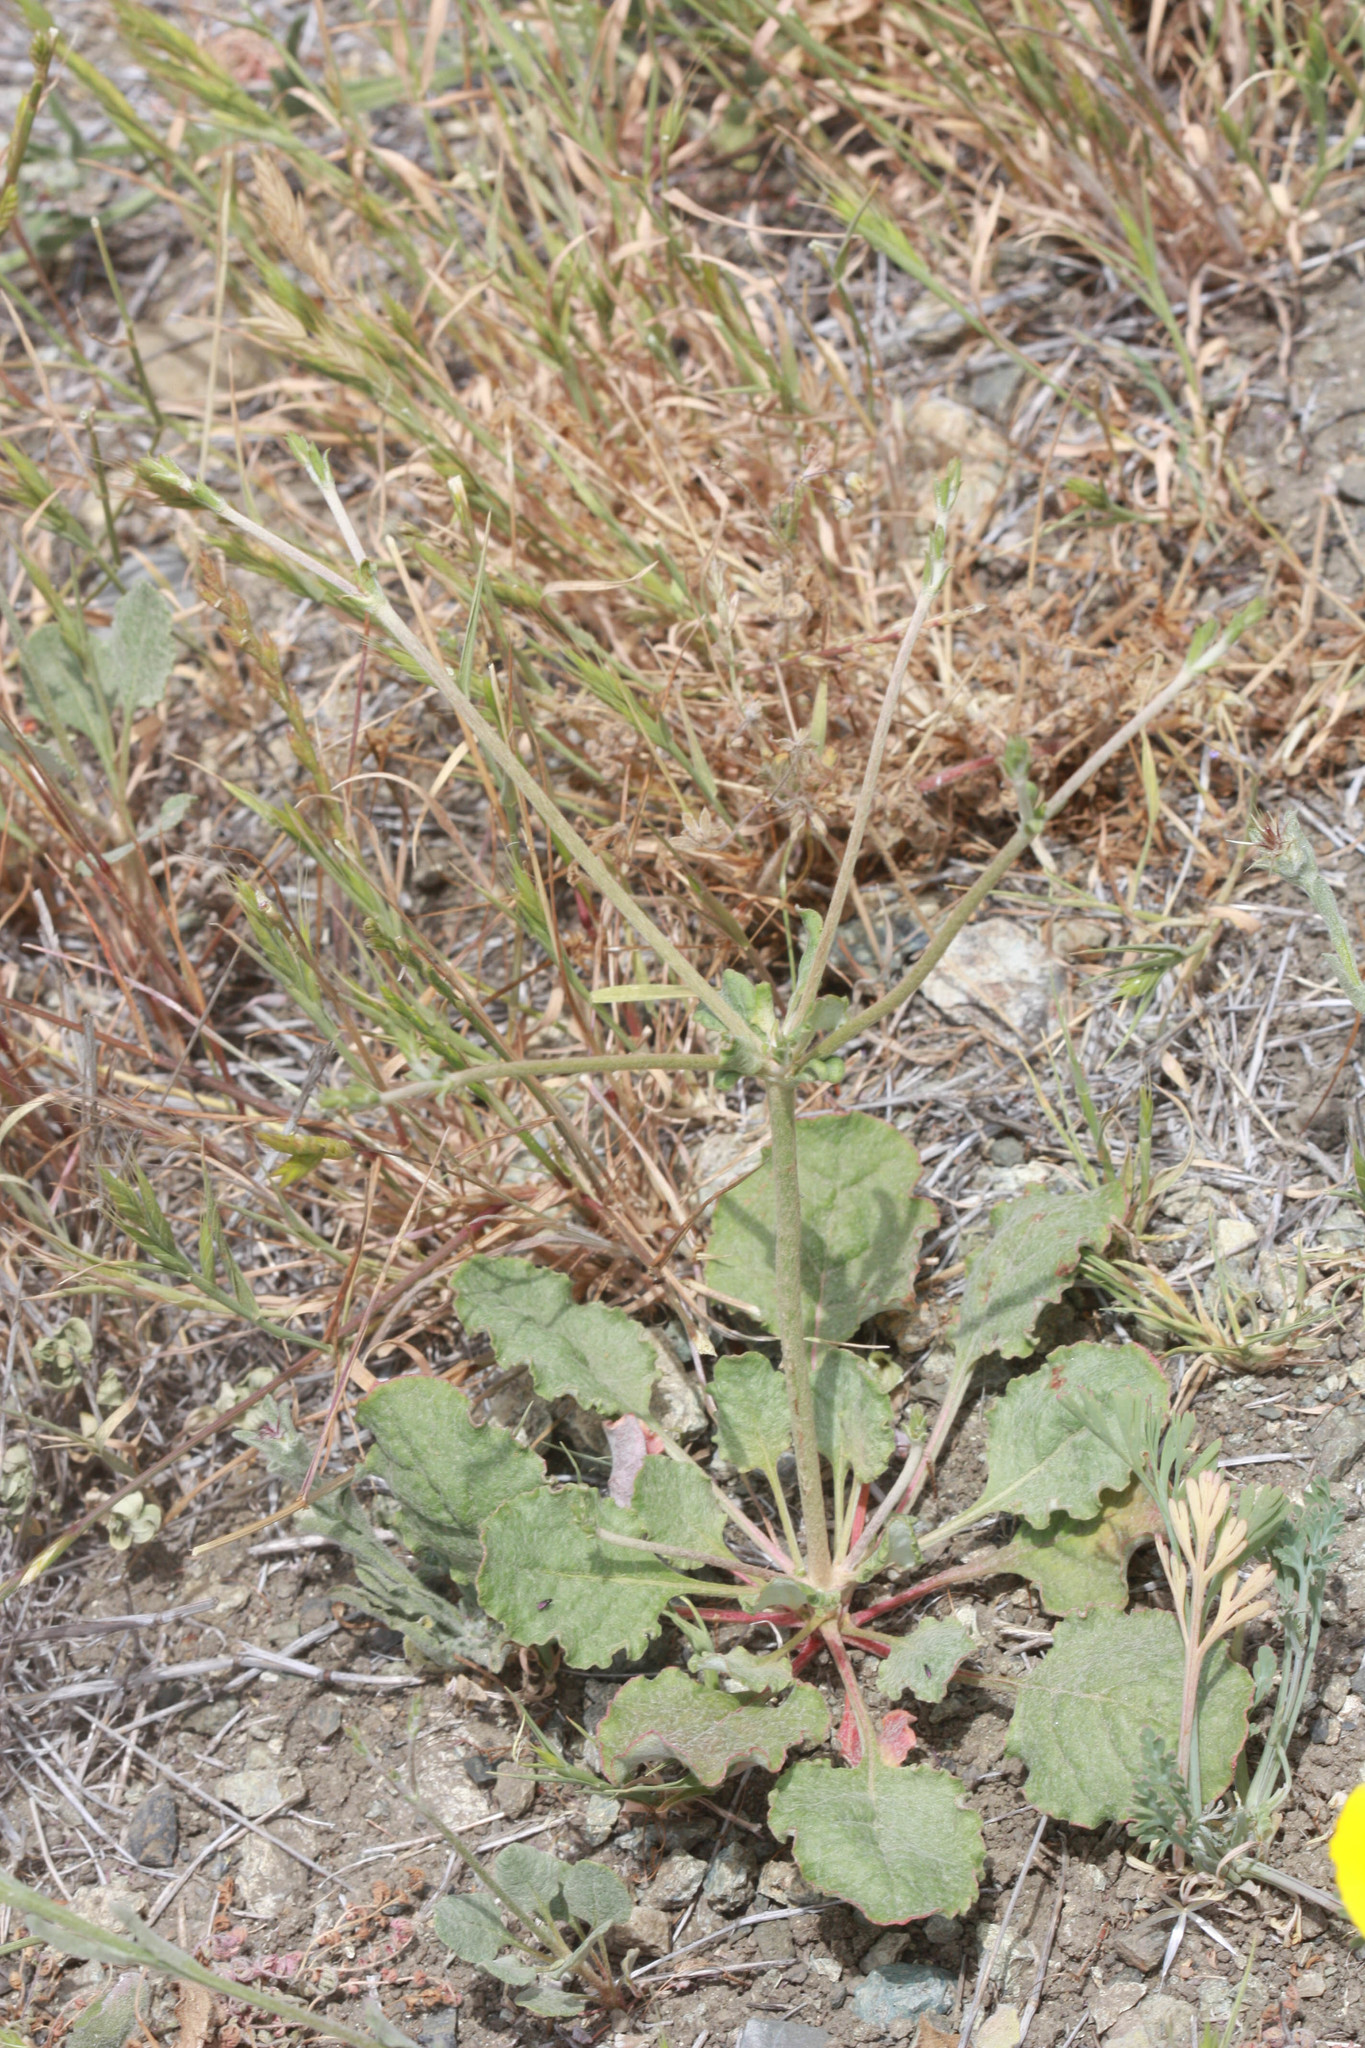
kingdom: Plantae
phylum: Tracheophyta
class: Magnoliopsida
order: Caryophyllales
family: Polygonaceae
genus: Eriogonum
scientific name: Eriogonum nudum
